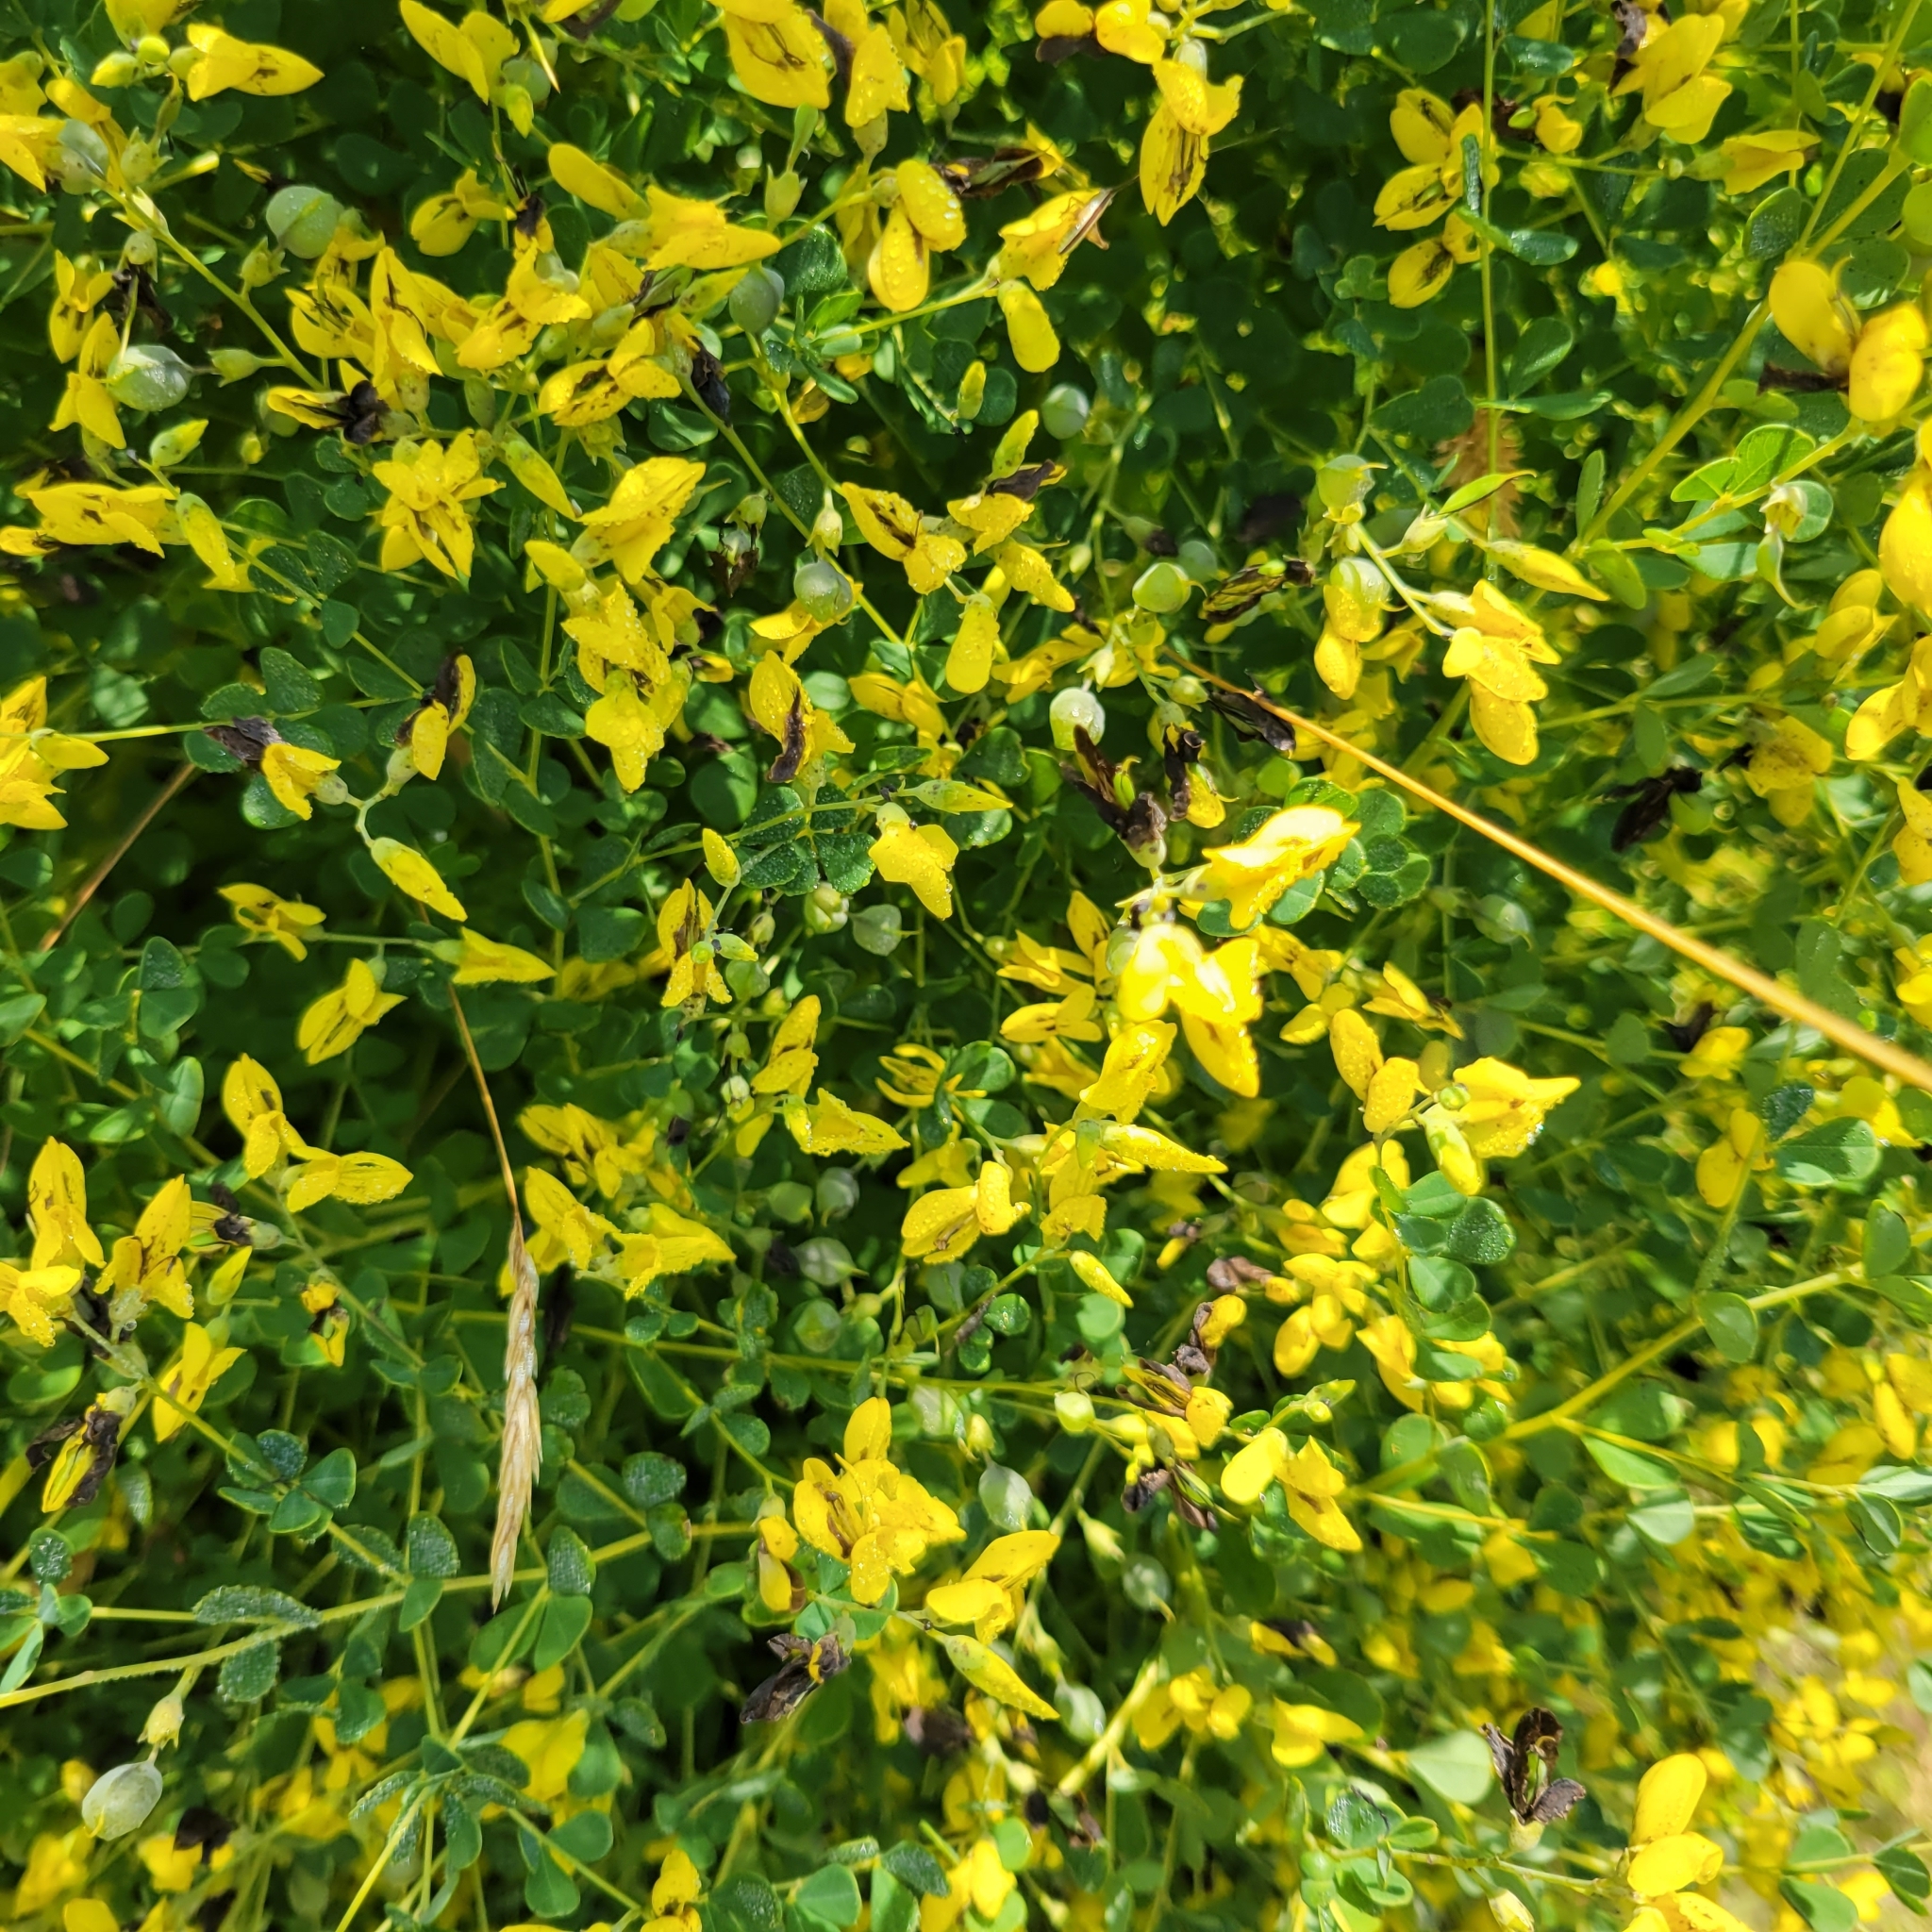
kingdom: Plantae
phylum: Tracheophyta
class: Magnoliopsida
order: Fabales
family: Fabaceae
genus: Baptisia
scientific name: Baptisia tinctoria
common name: Wild indigo
